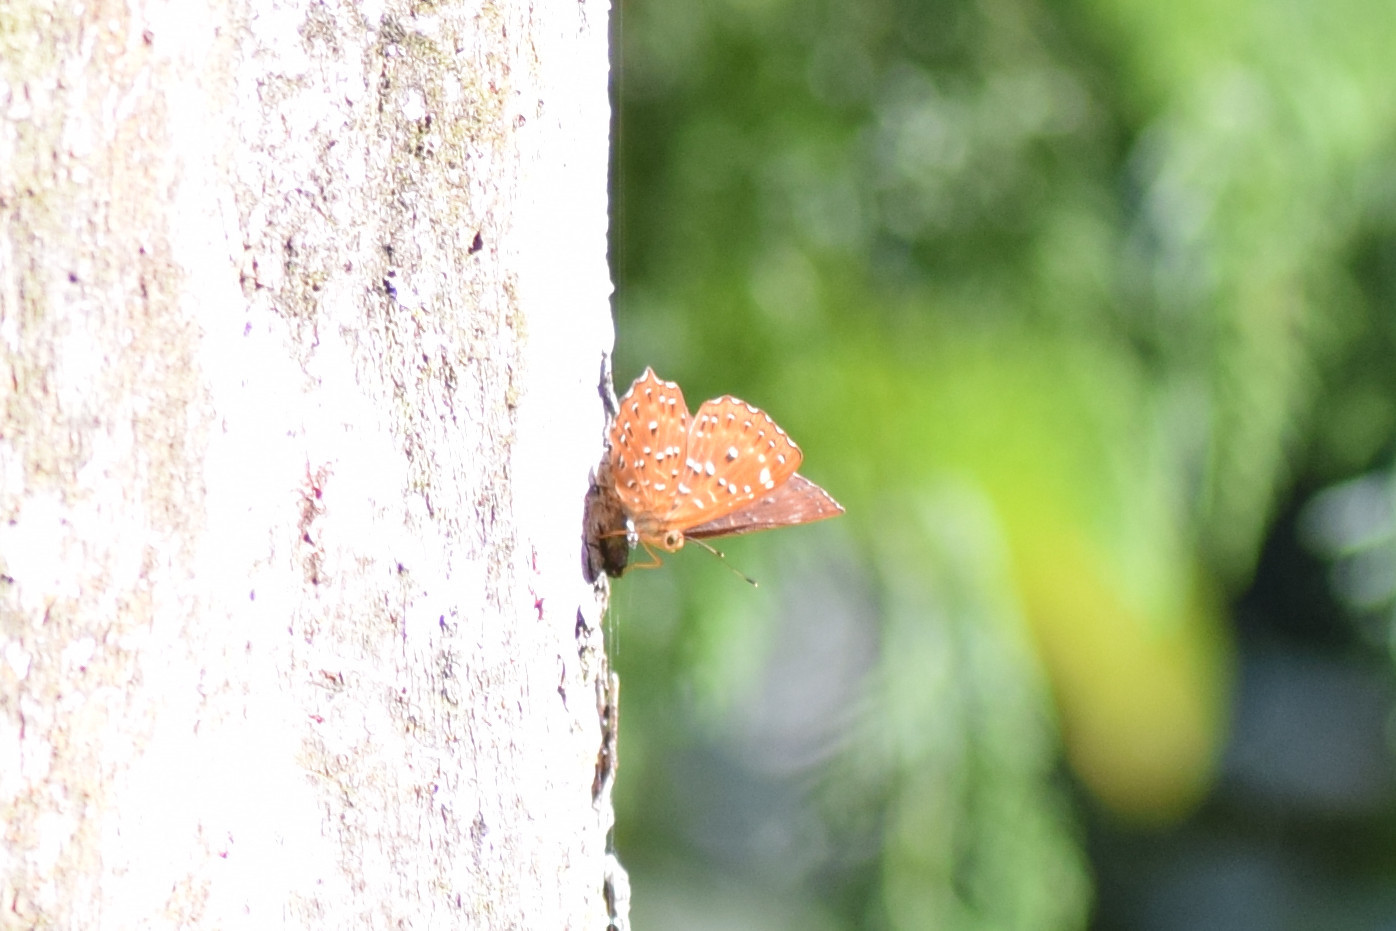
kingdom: Animalia
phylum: Arthropoda
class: Insecta
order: Lepidoptera
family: Riodinidae
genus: Zemeros
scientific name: Zemeros flegyas
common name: Punchinello
